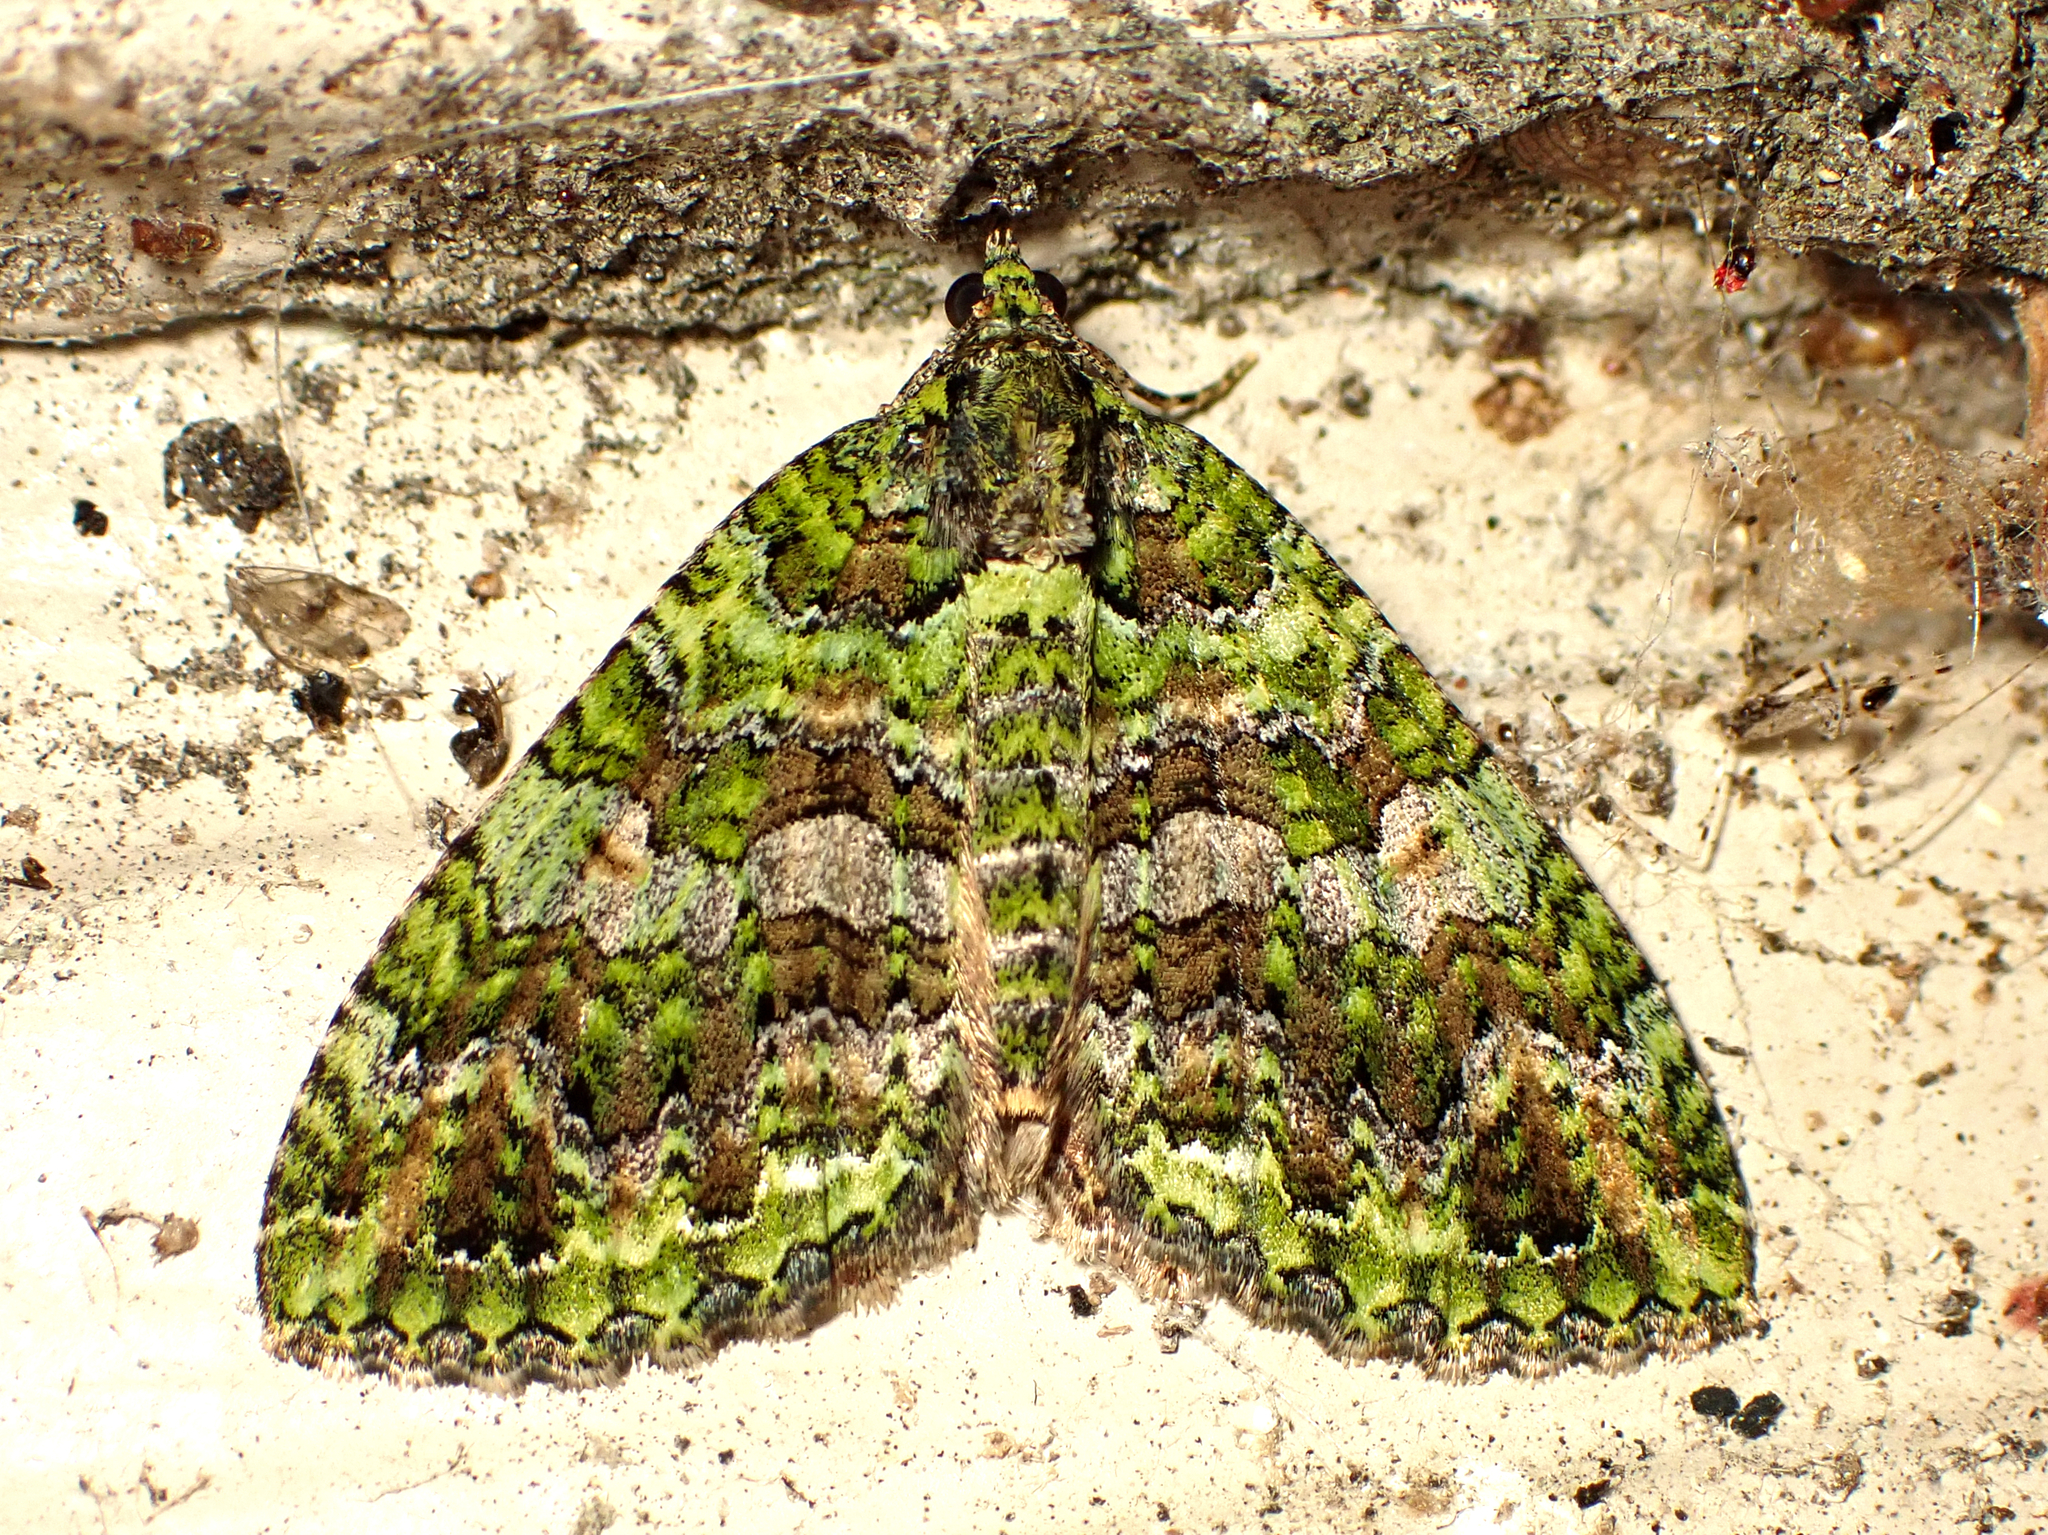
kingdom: Animalia
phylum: Arthropoda
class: Insecta
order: Lepidoptera
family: Geometridae
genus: Austrocidaria
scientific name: Austrocidaria similata
